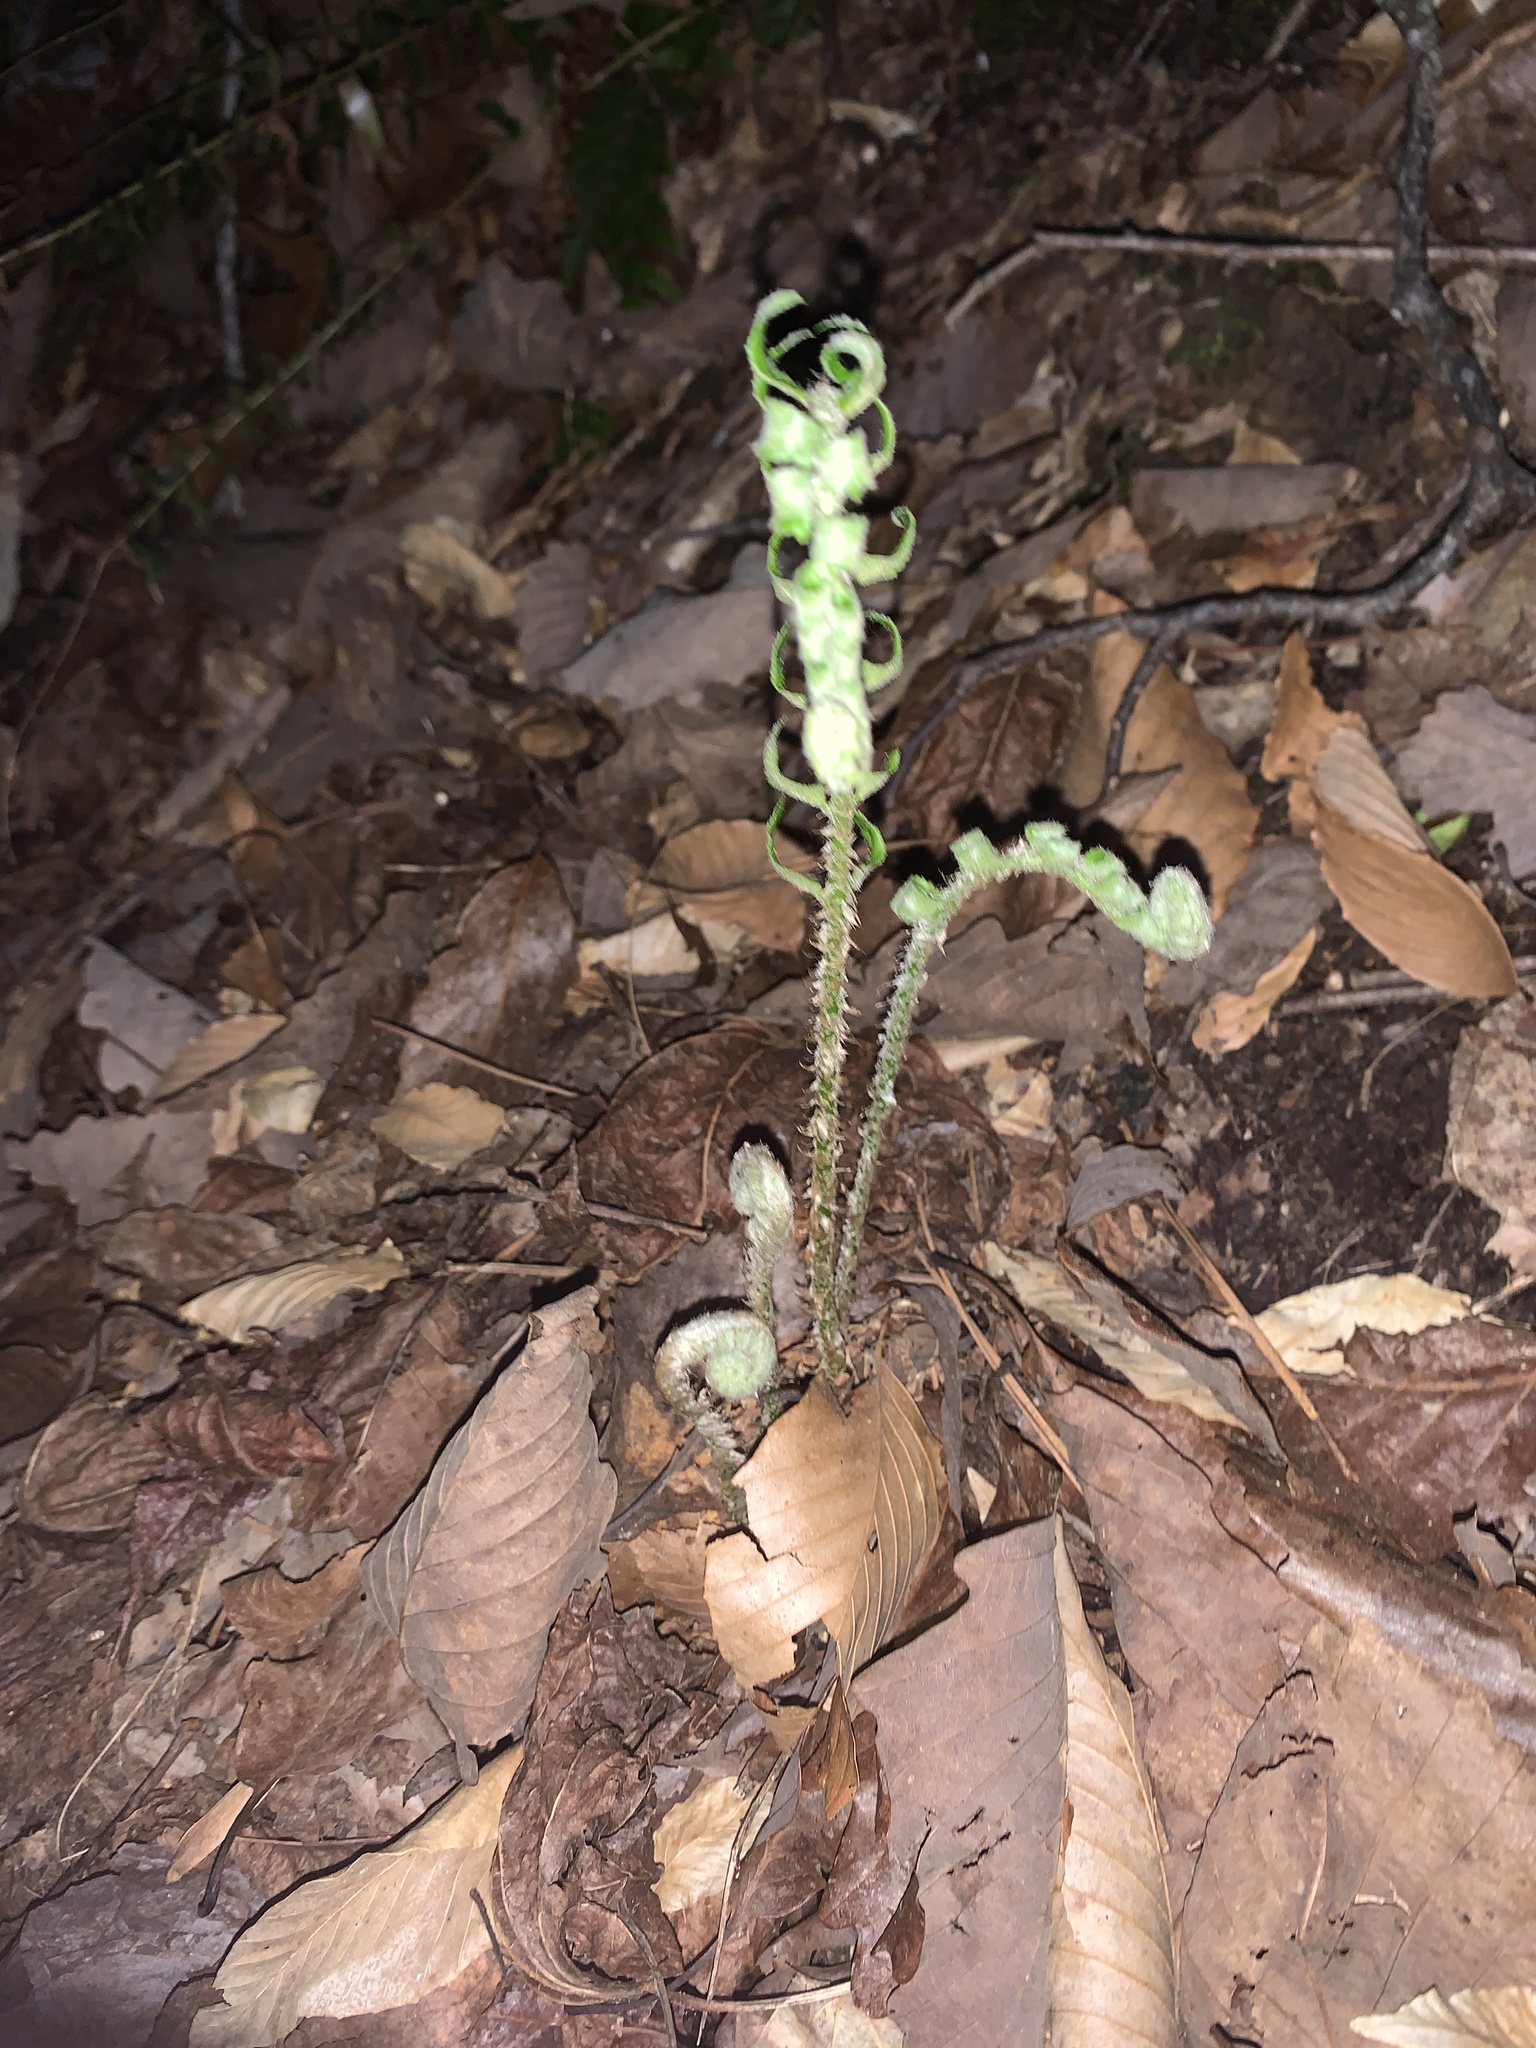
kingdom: Plantae
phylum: Tracheophyta
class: Polypodiopsida
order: Polypodiales
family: Dryopteridaceae
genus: Polystichum
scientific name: Polystichum acrostichoides
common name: Christmas fern
